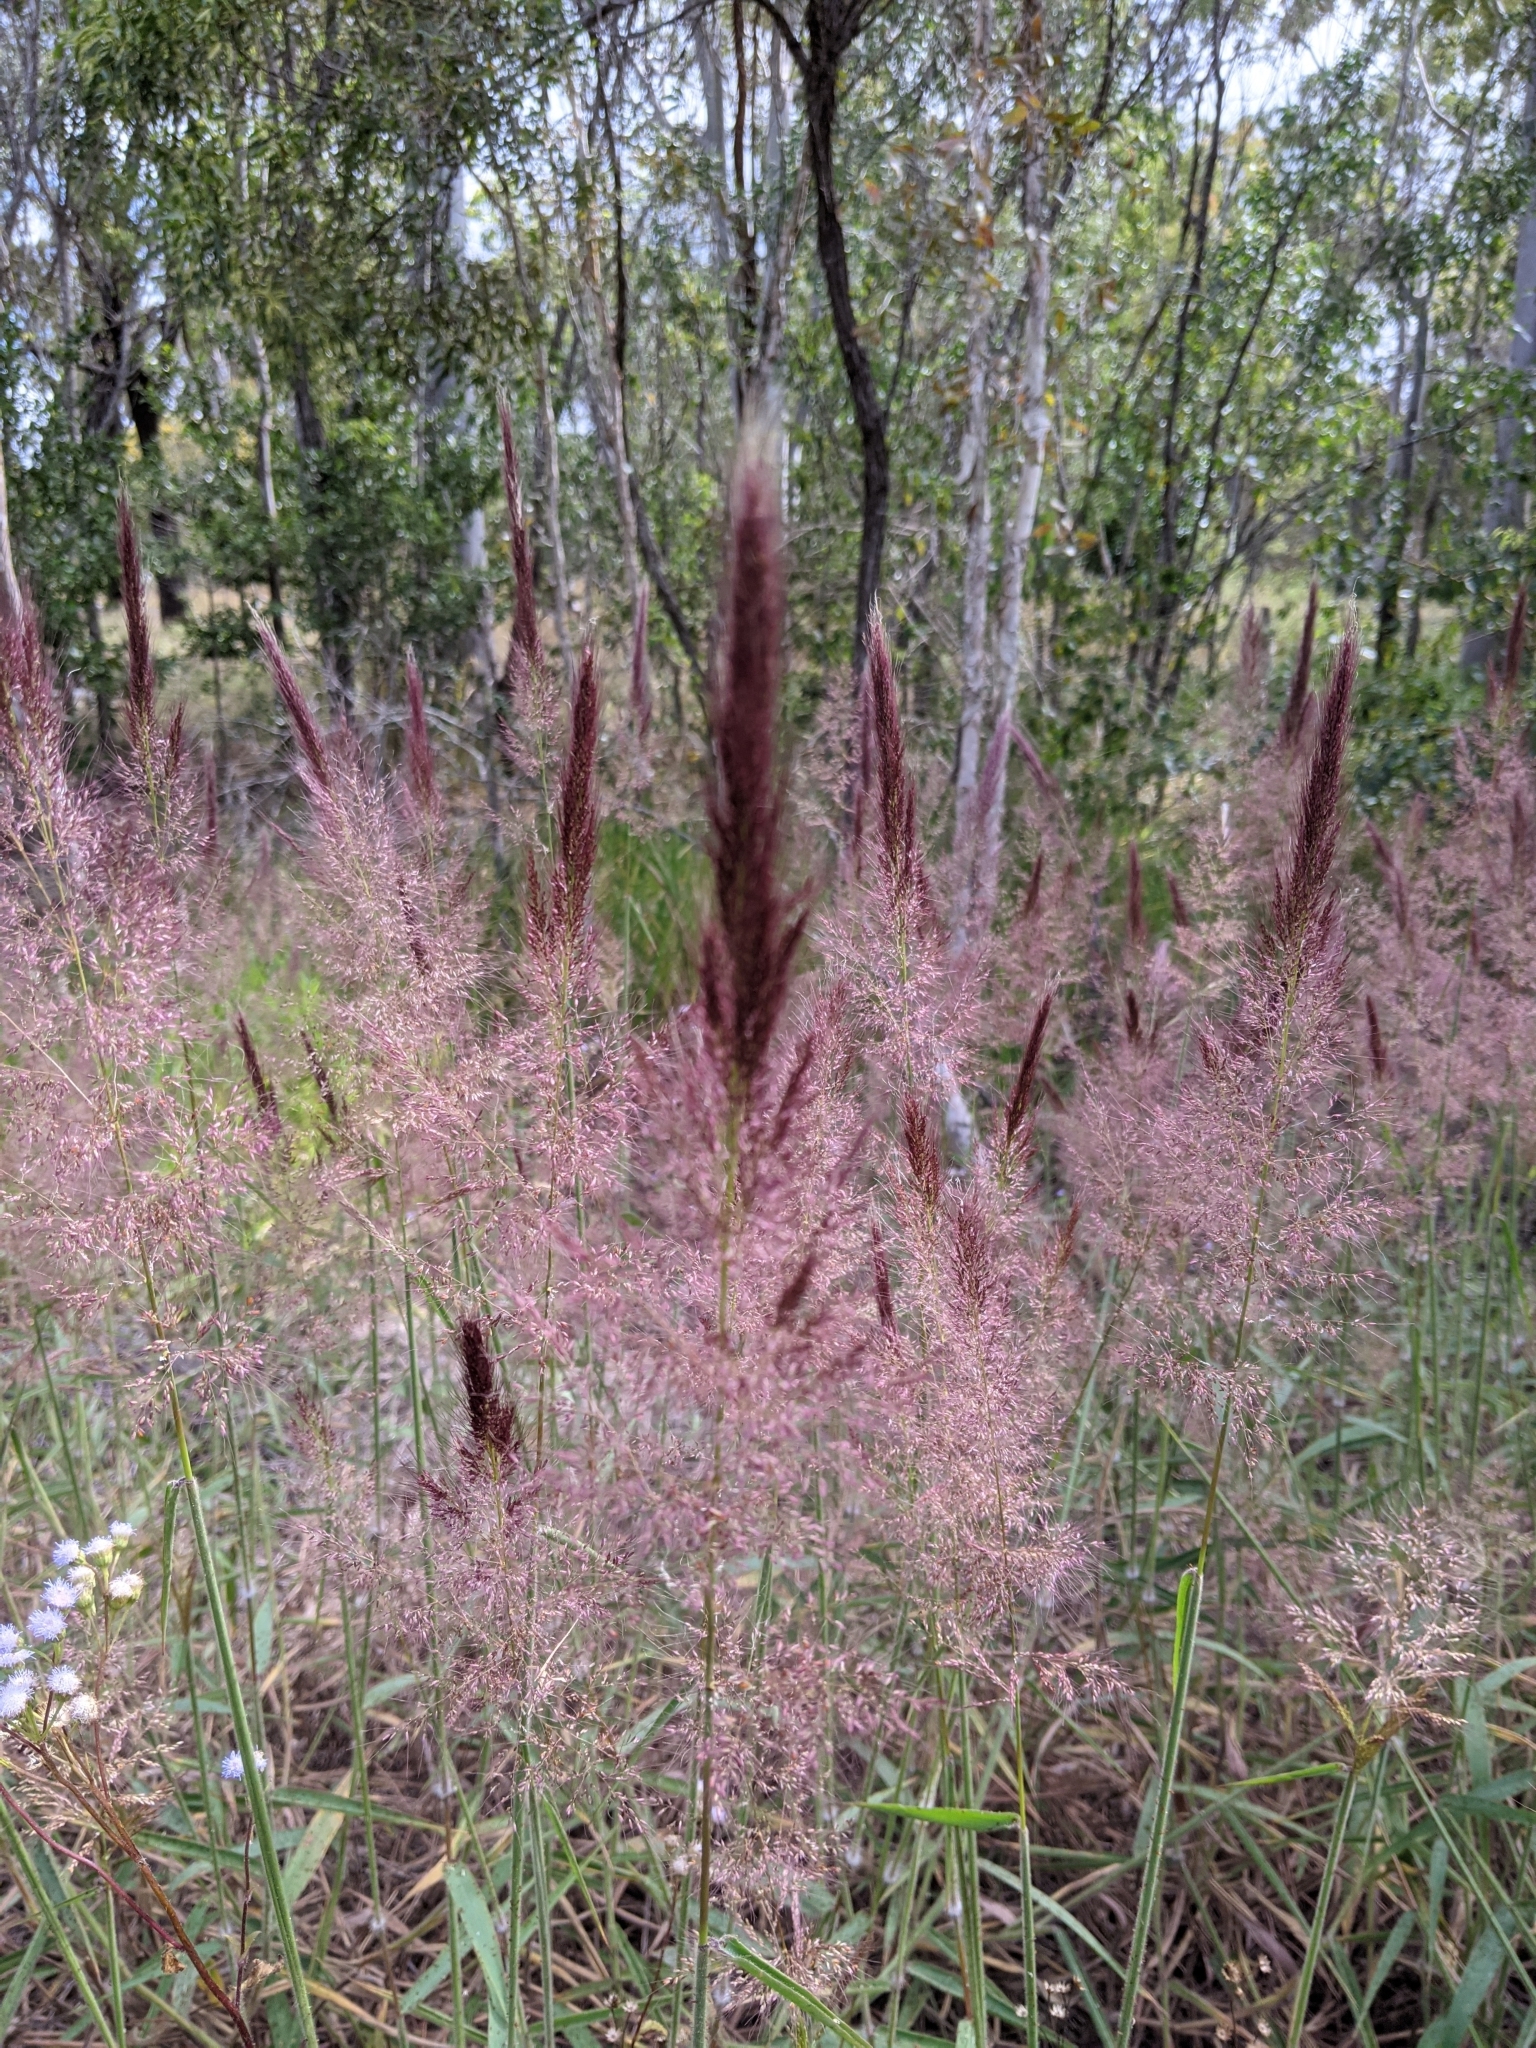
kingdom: Plantae
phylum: Tracheophyta
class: Liliopsida
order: Poales
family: Poaceae
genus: Melinis
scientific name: Melinis minutiflora
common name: Molassesgrass
